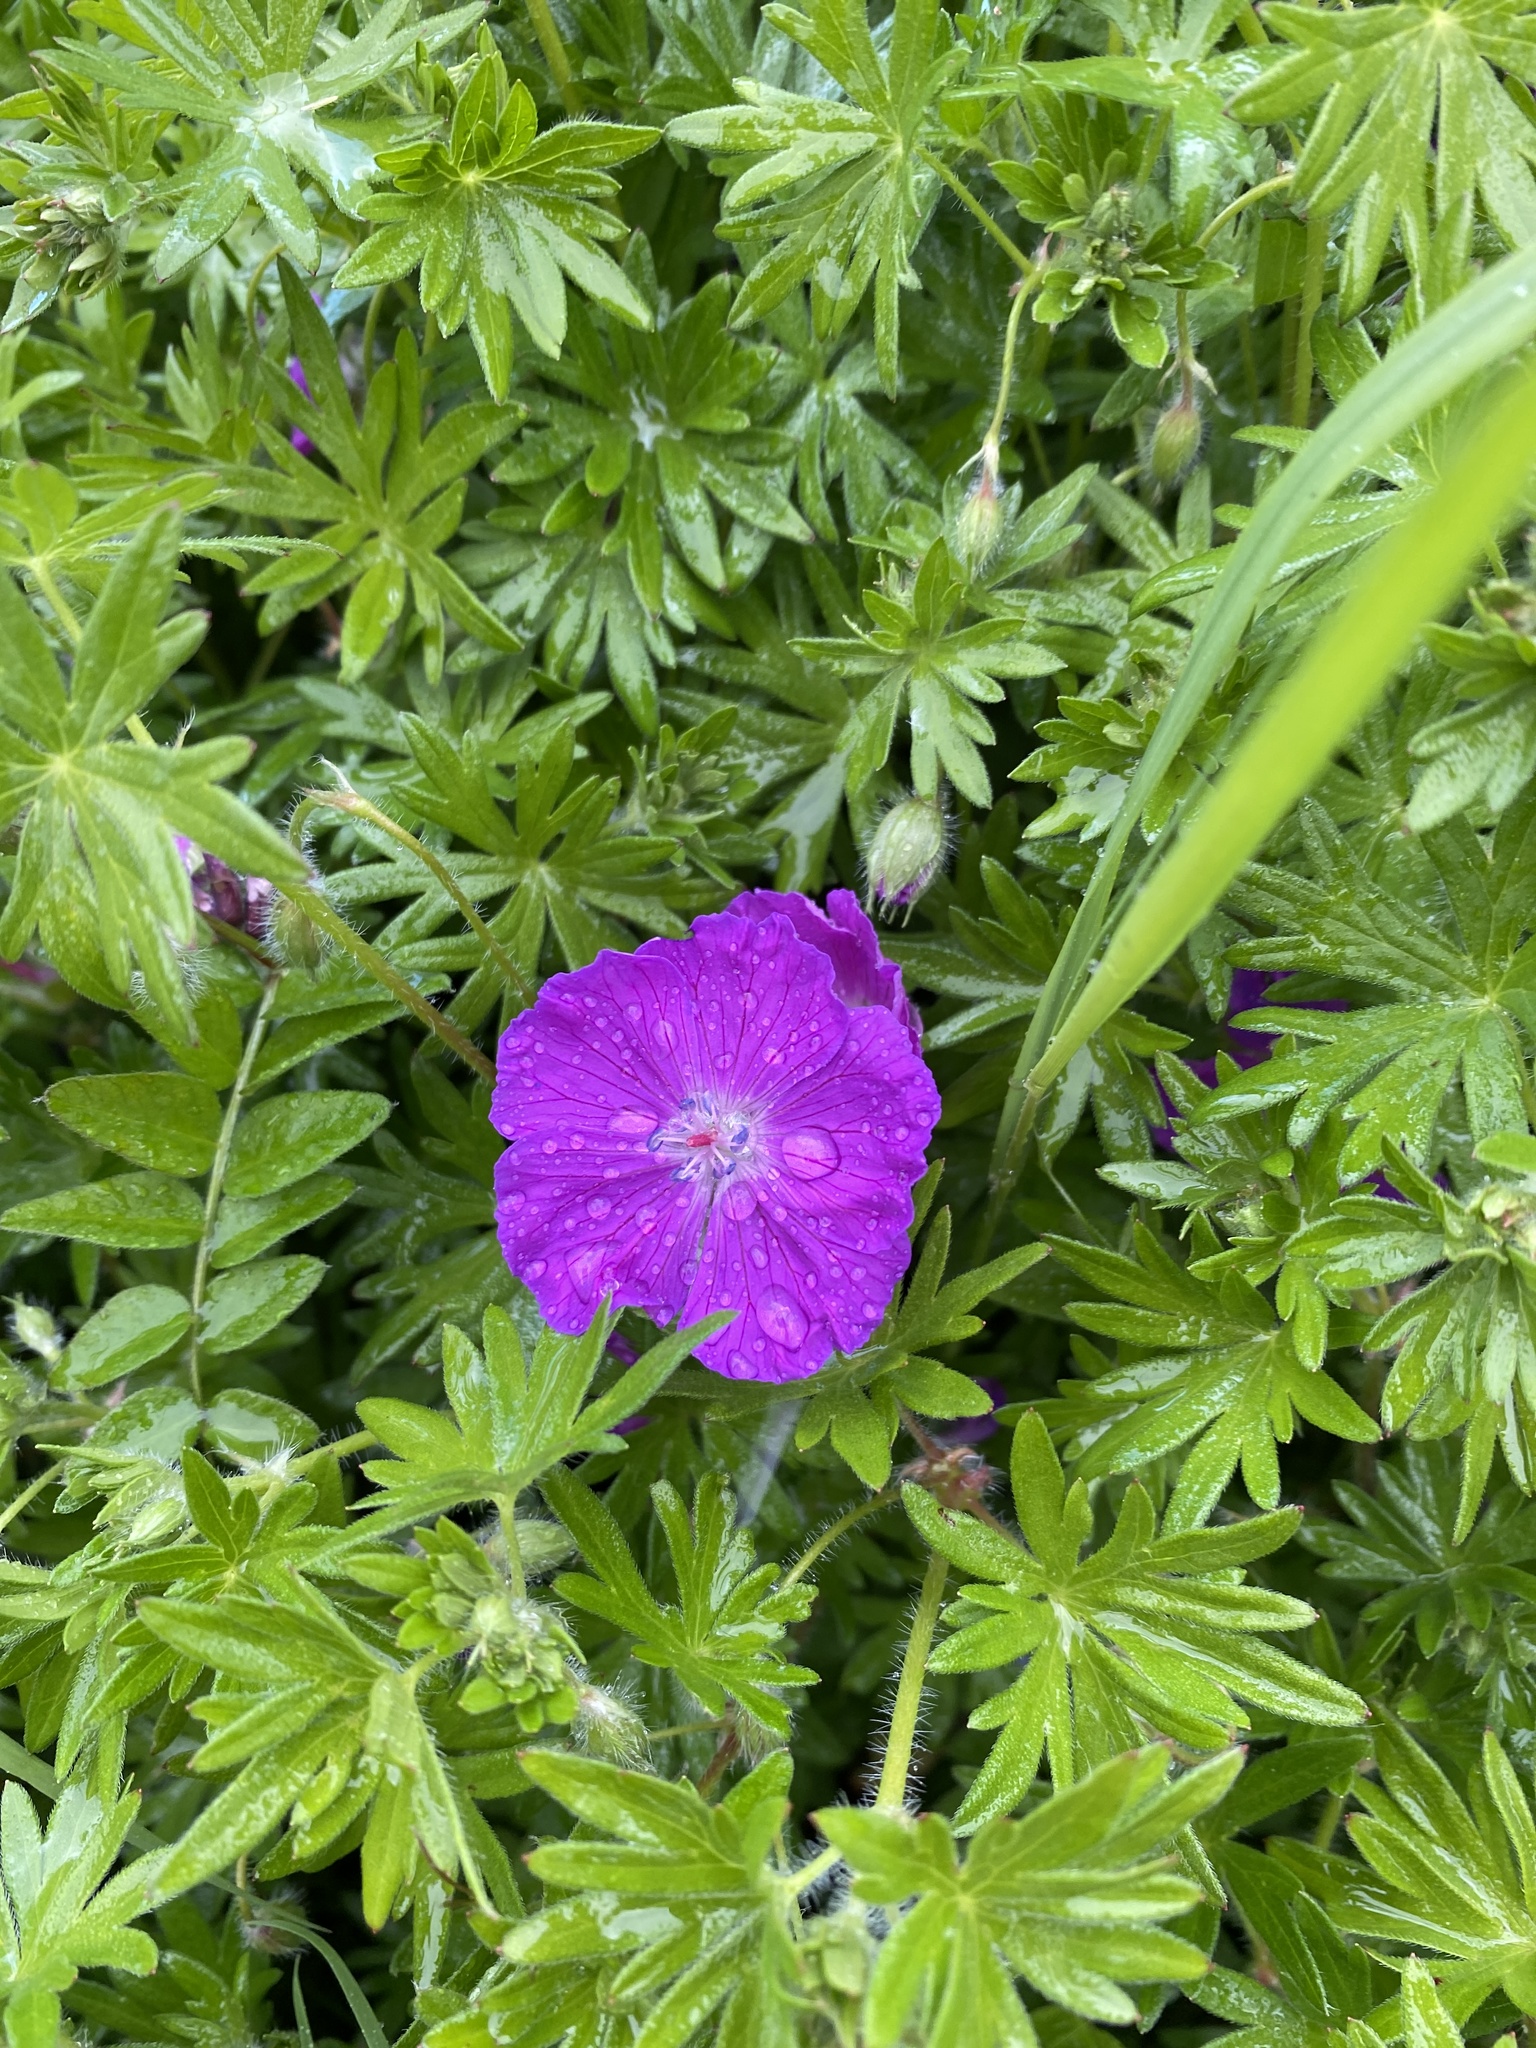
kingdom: Plantae
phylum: Tracheophyta
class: Magnoliopsida
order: Geraniales
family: Geraniaceae
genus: Geranium
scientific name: Geranium sanguineum
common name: Bloody crane's-bill
